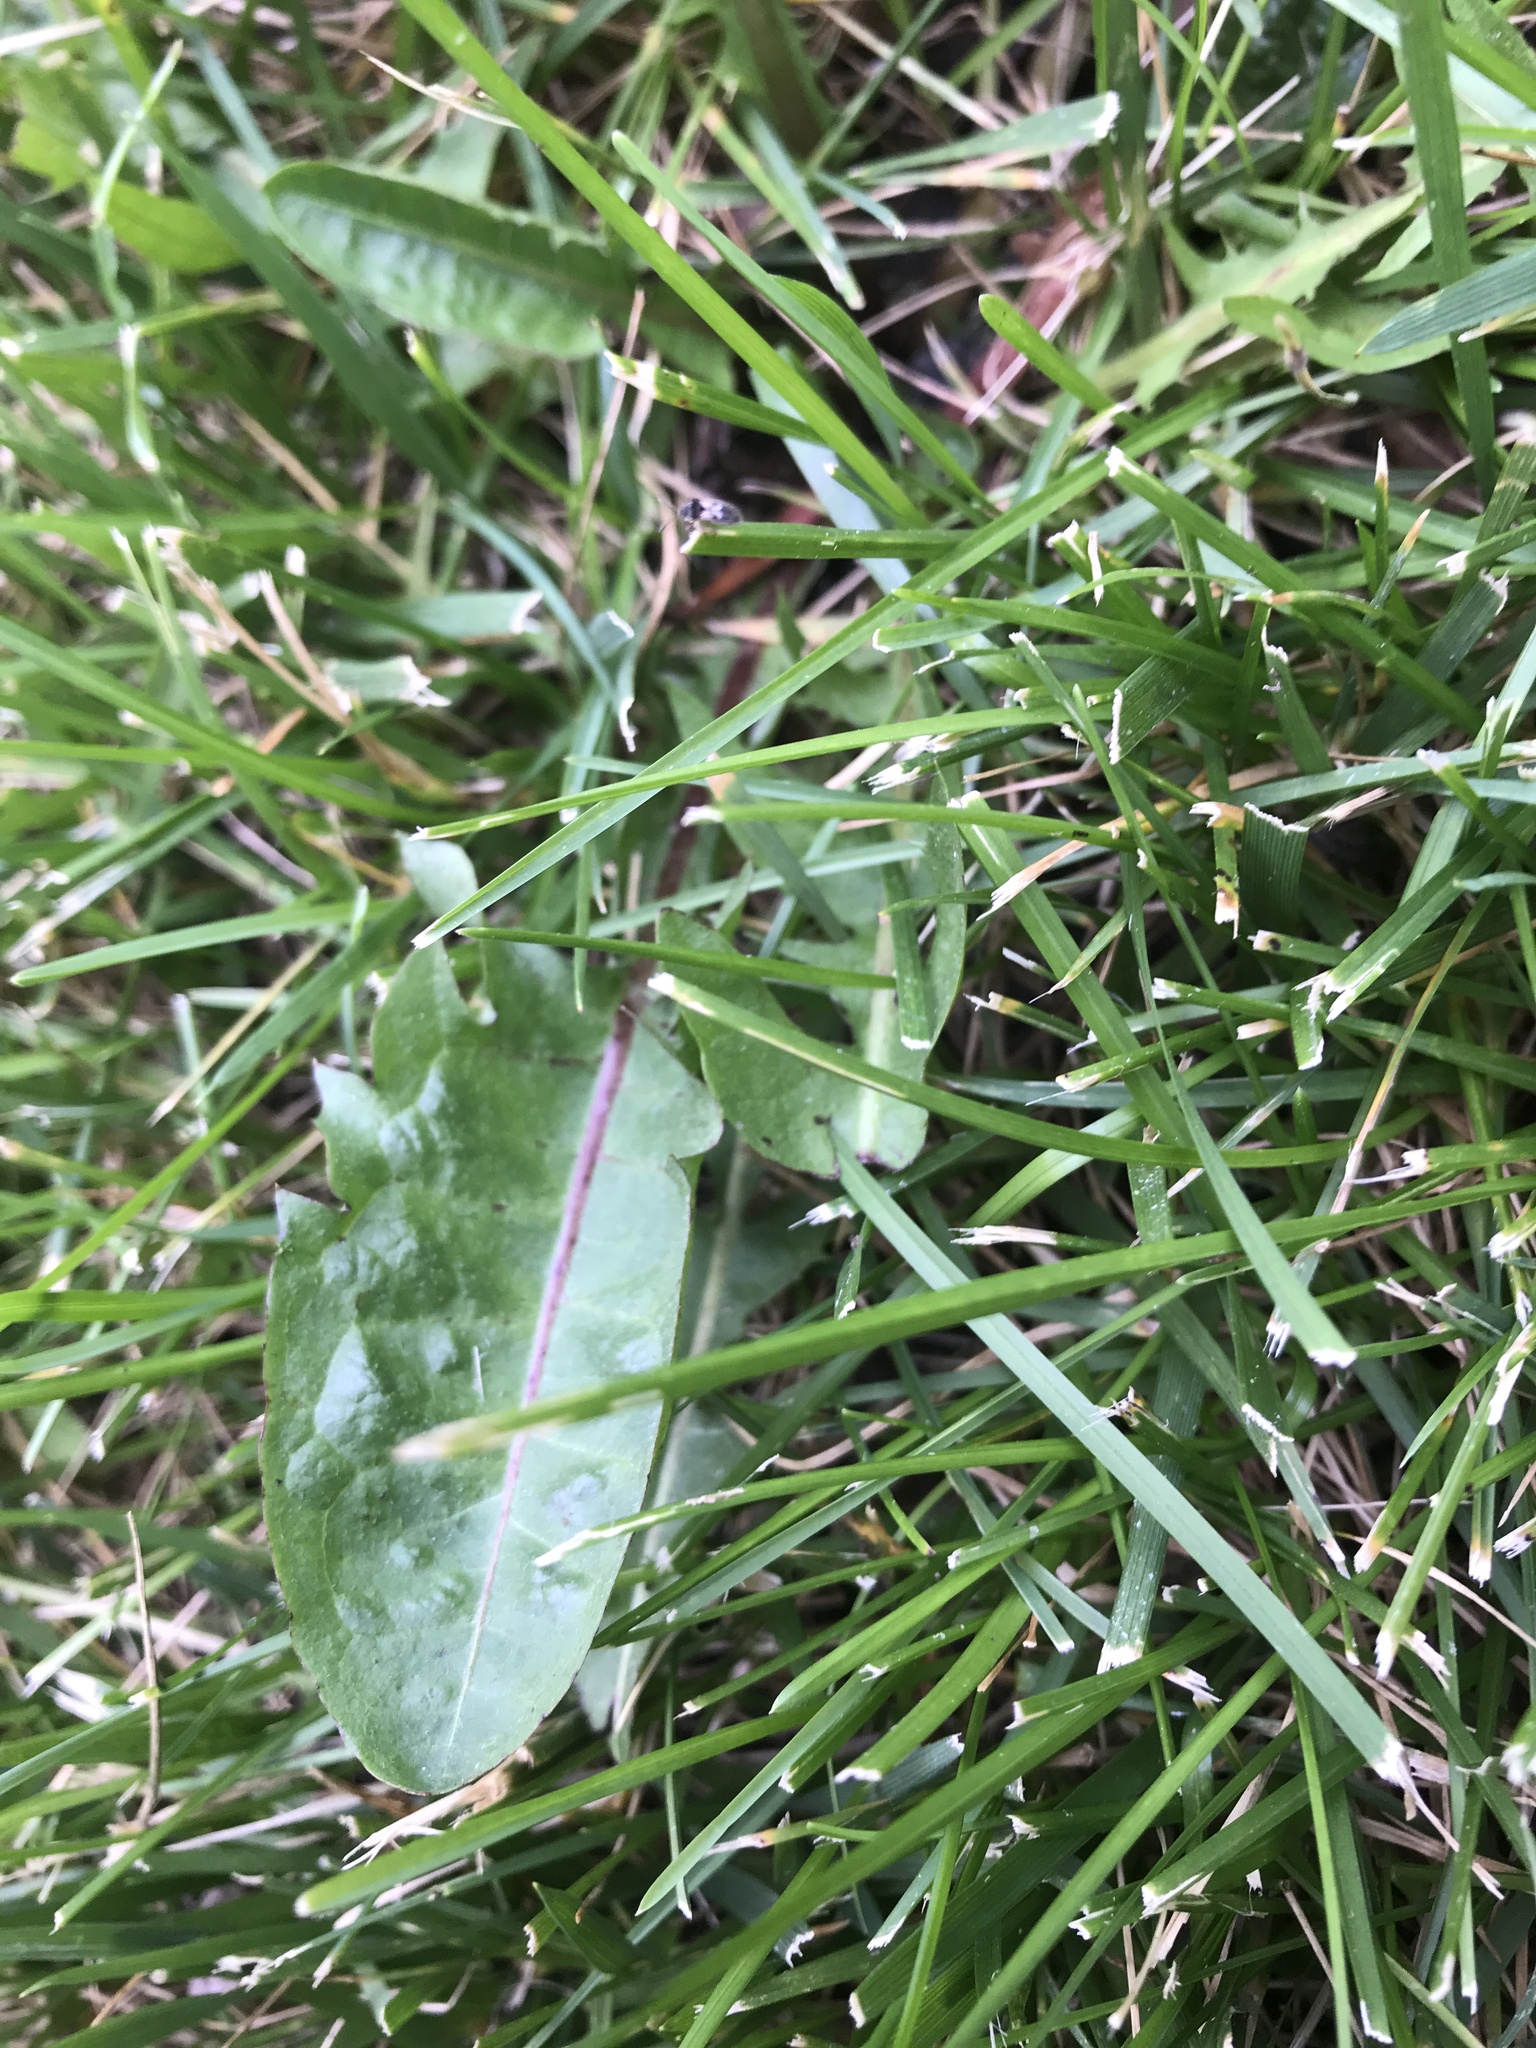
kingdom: Plantae
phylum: Tracheophyta
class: Magnoliopsida
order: Asterales
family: Asteraceae
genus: Taraxacum
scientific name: Taraxacum officinale
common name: Common dandelion
